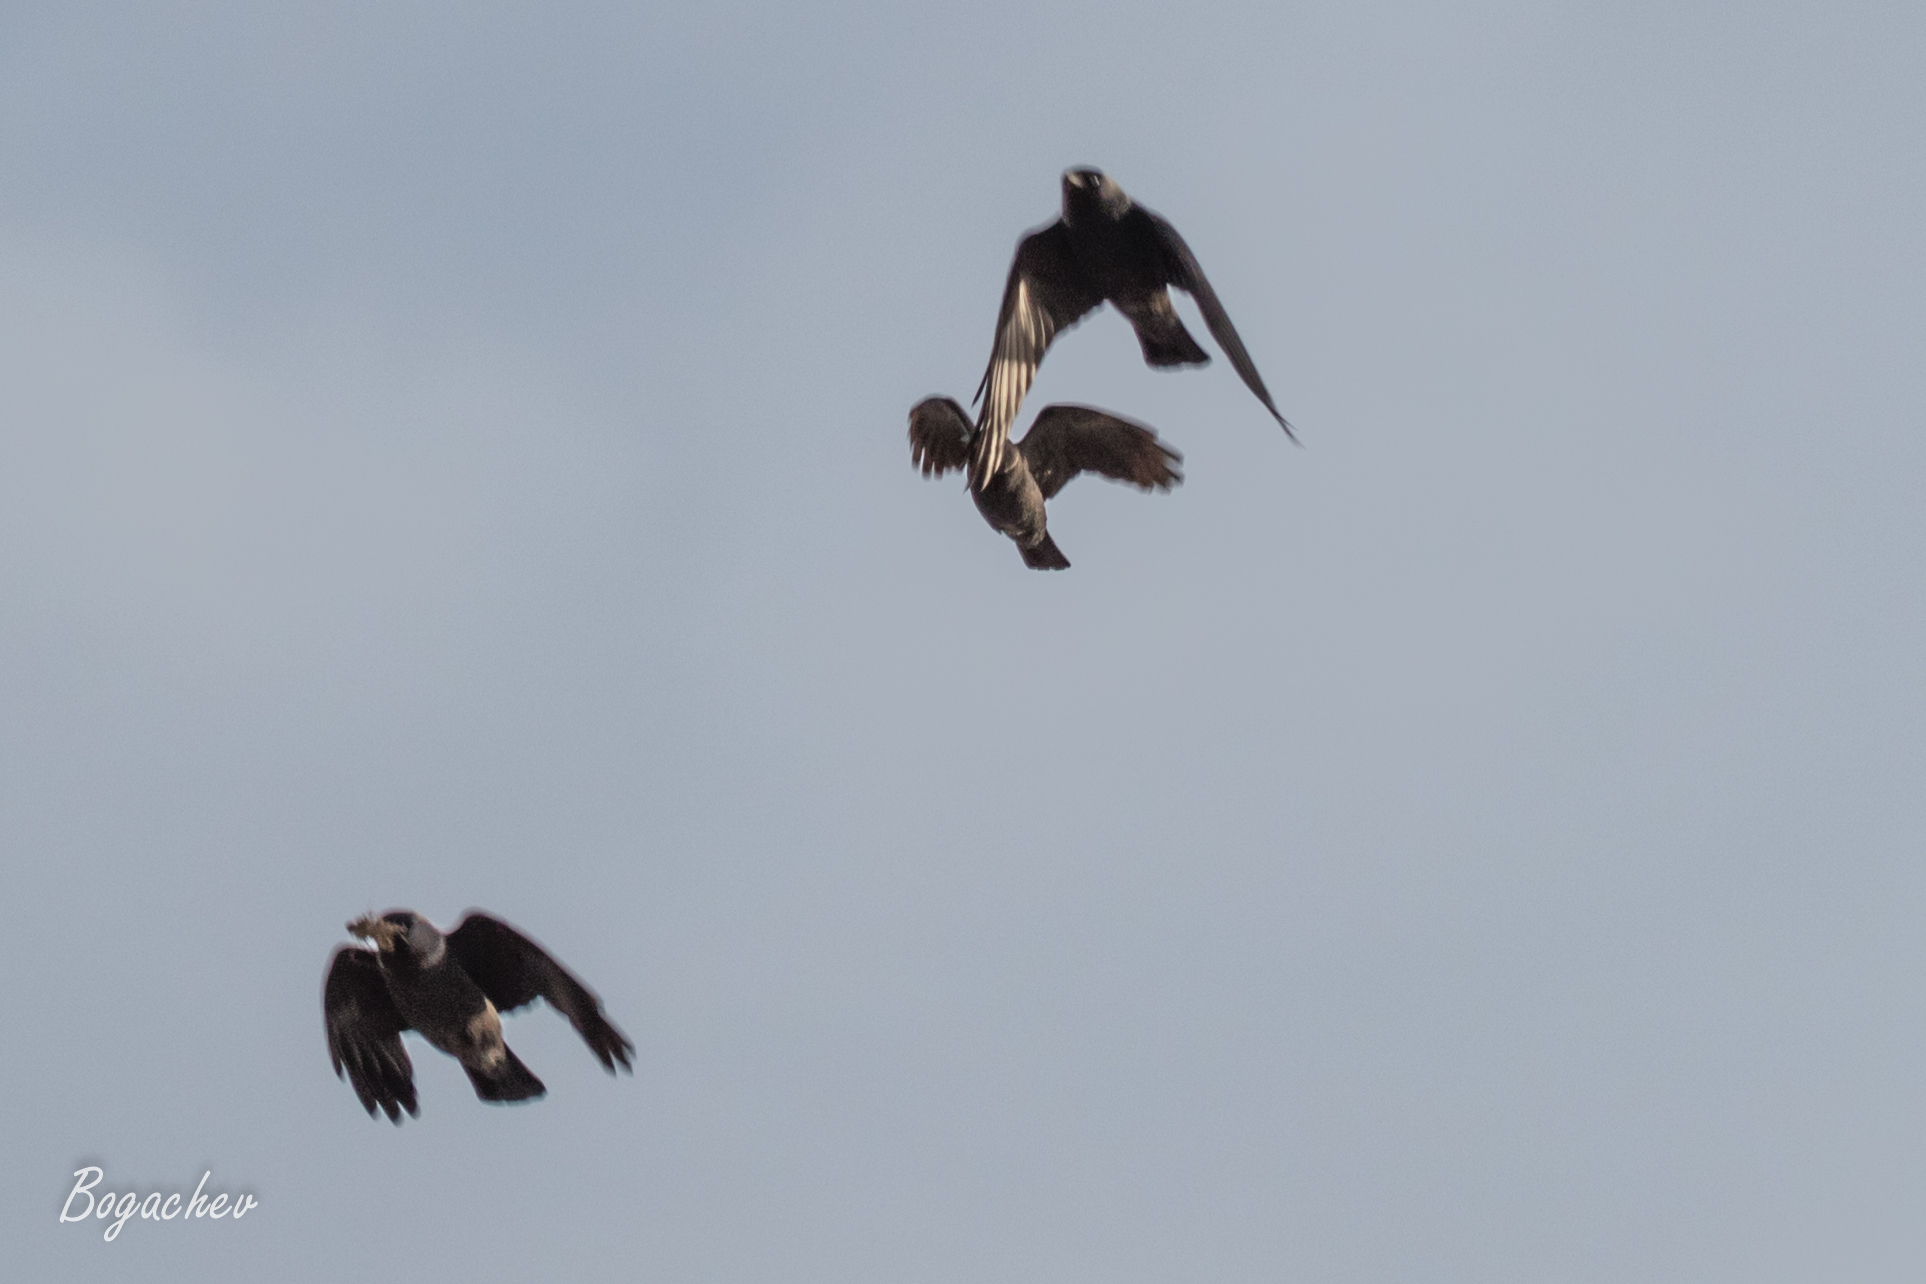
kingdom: Animalia
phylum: Chordata
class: Aves
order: Passeriformes
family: Corvidae
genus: Coloeus
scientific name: Coloeus monedula
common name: Western jackdaw
